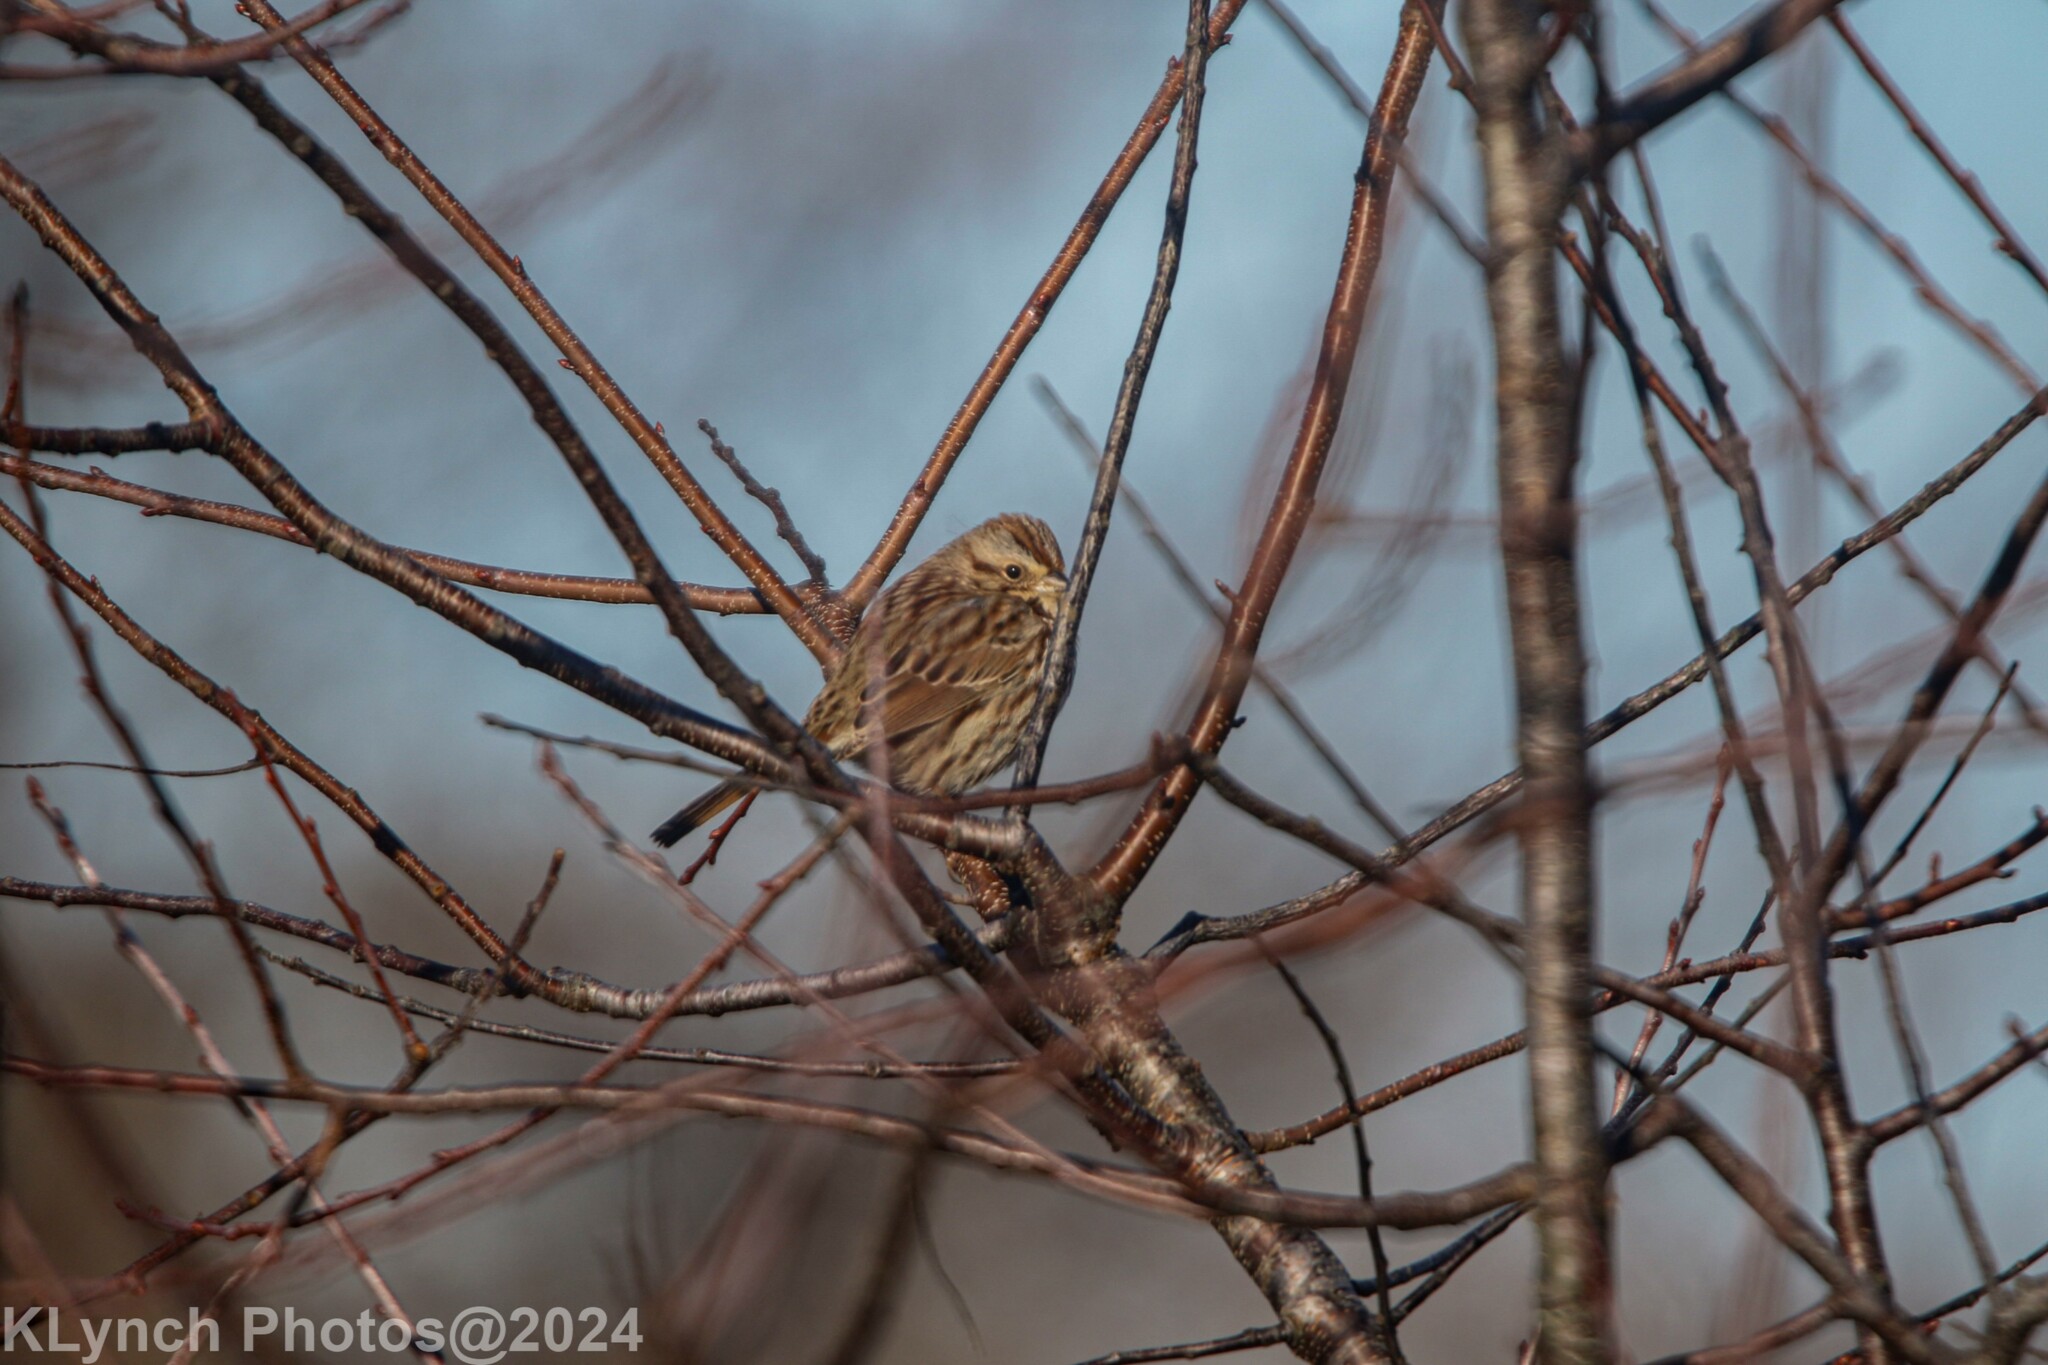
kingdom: Animalia
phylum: Chordata
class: Aves
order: Passeriformes
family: Passerellidae
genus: Melospiza
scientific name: Melospiza melodia
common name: Song sparrow
